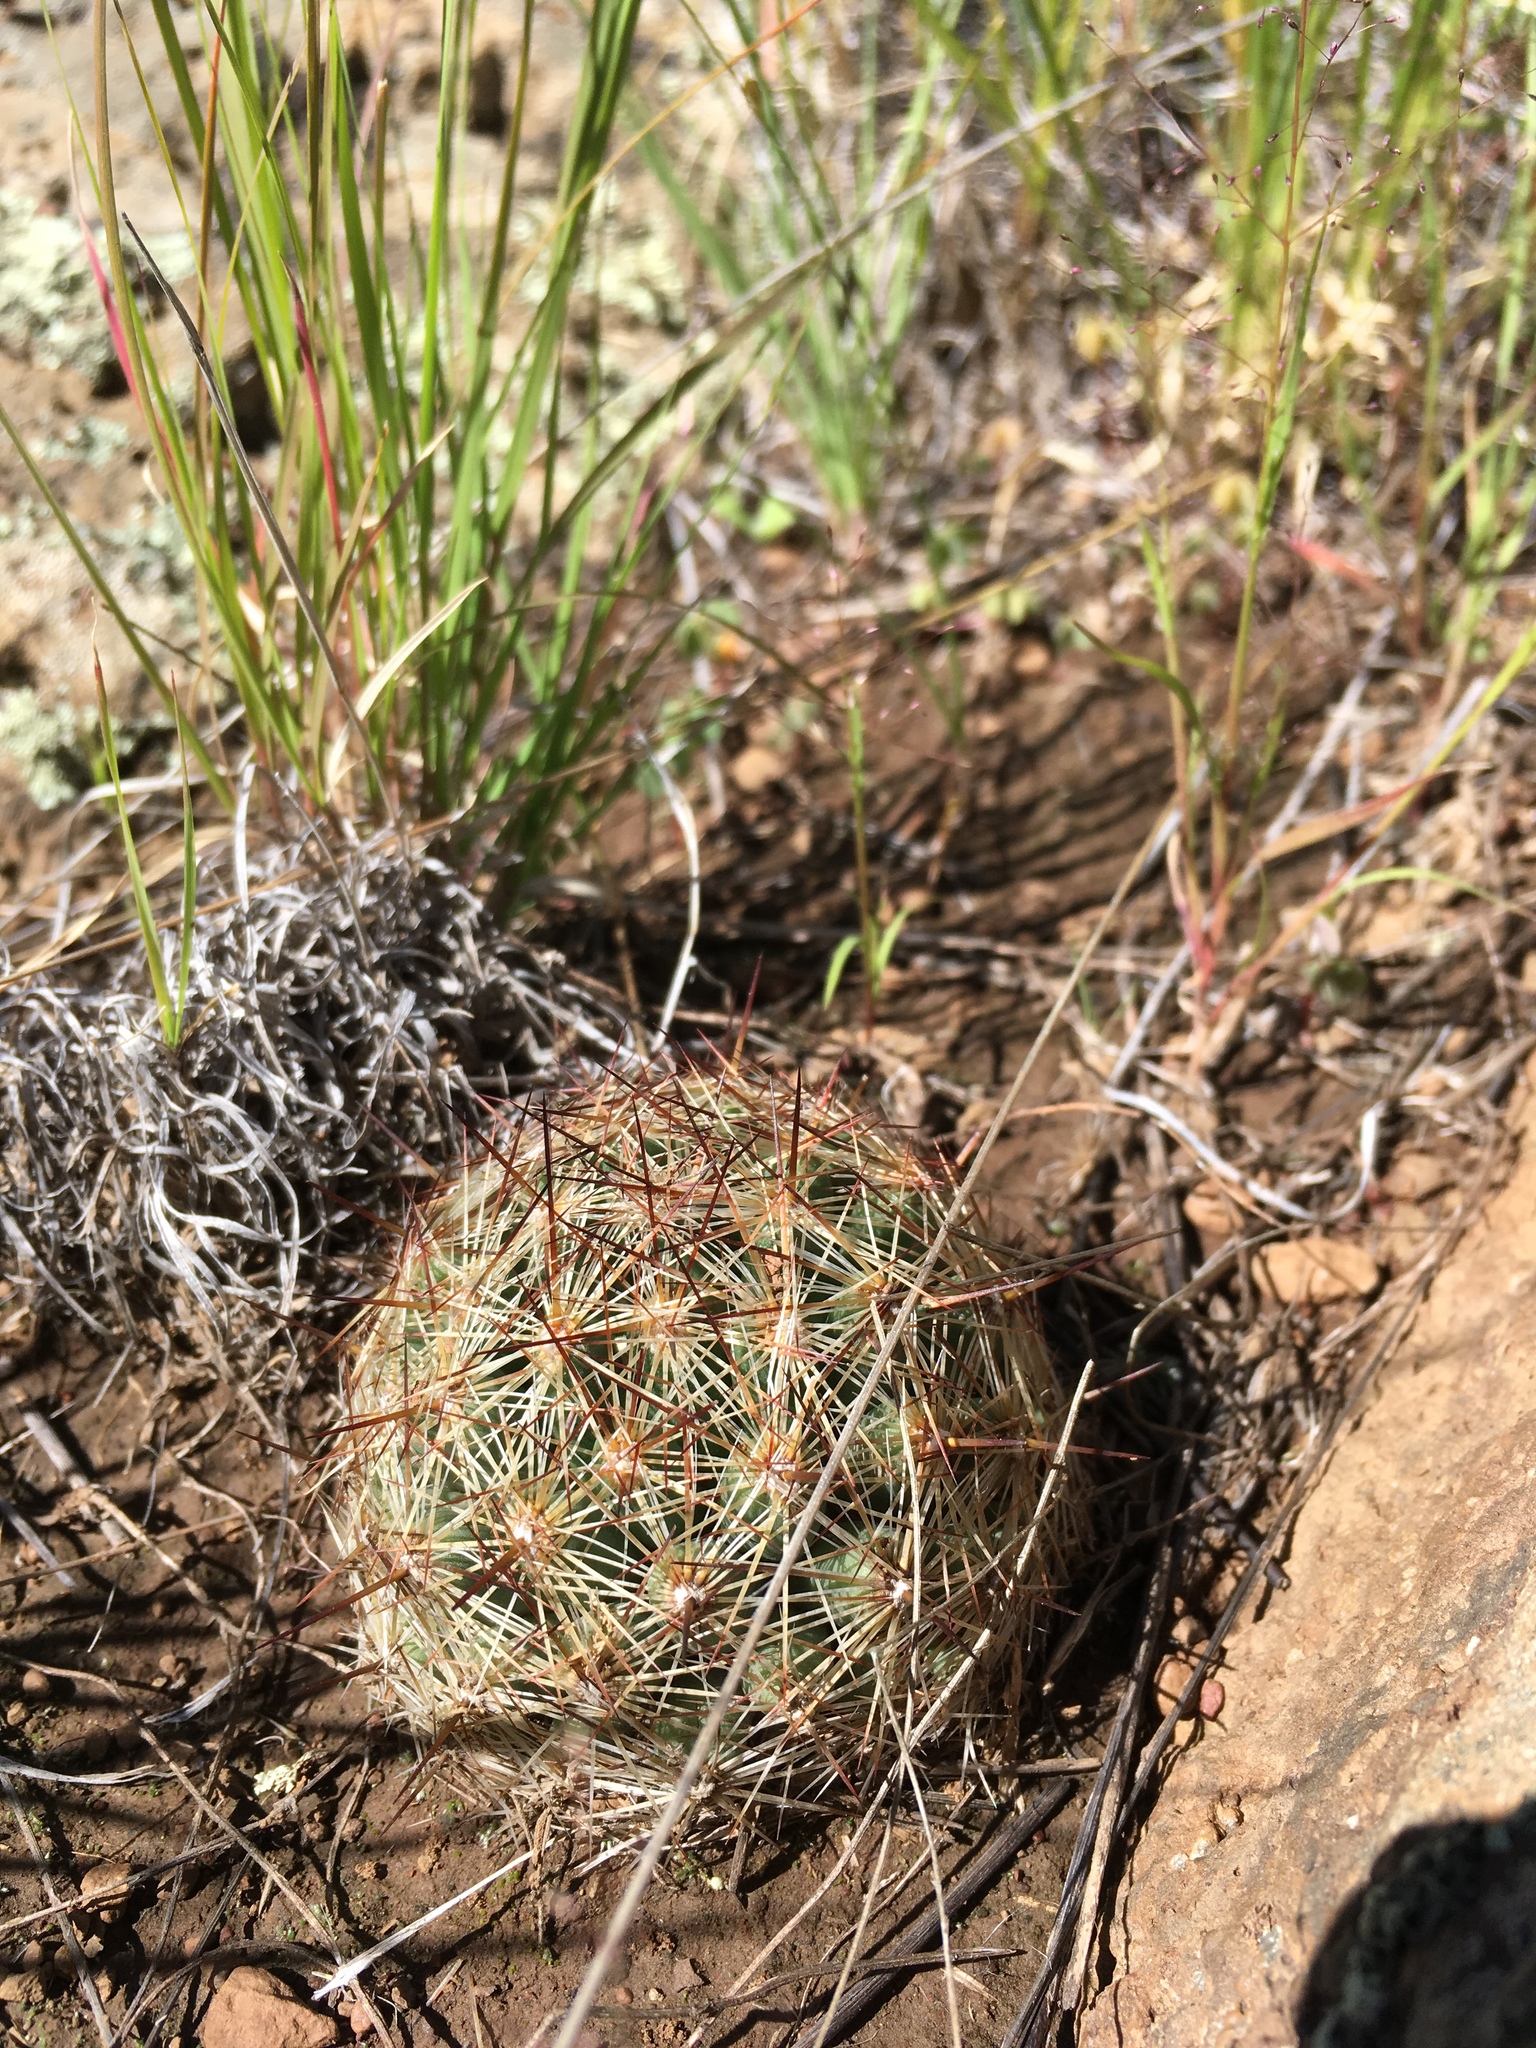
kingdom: Plantae
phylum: Tracheophyta
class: Magnoliopsida
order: Caryophyllales
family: Cactaceae
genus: Pelecyphora
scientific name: Pelecyphora vivipara
